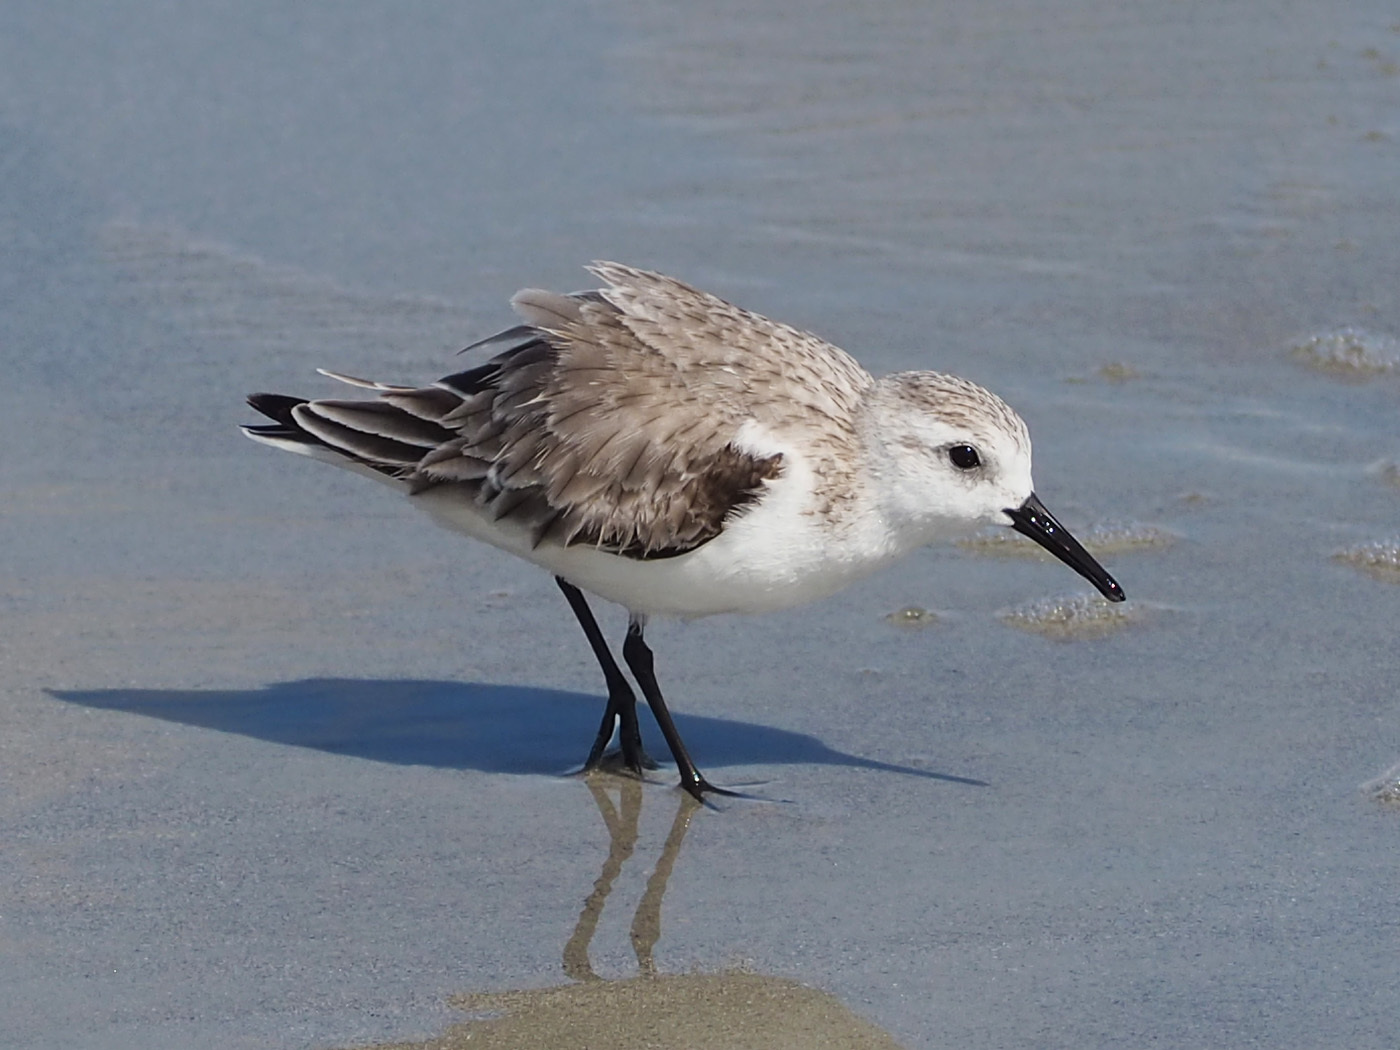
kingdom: Animalia
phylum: Chordata
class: Aves
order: Charadriiformes
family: Scolopacidae
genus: Calidris
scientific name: Calidris alba
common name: Sanderling
